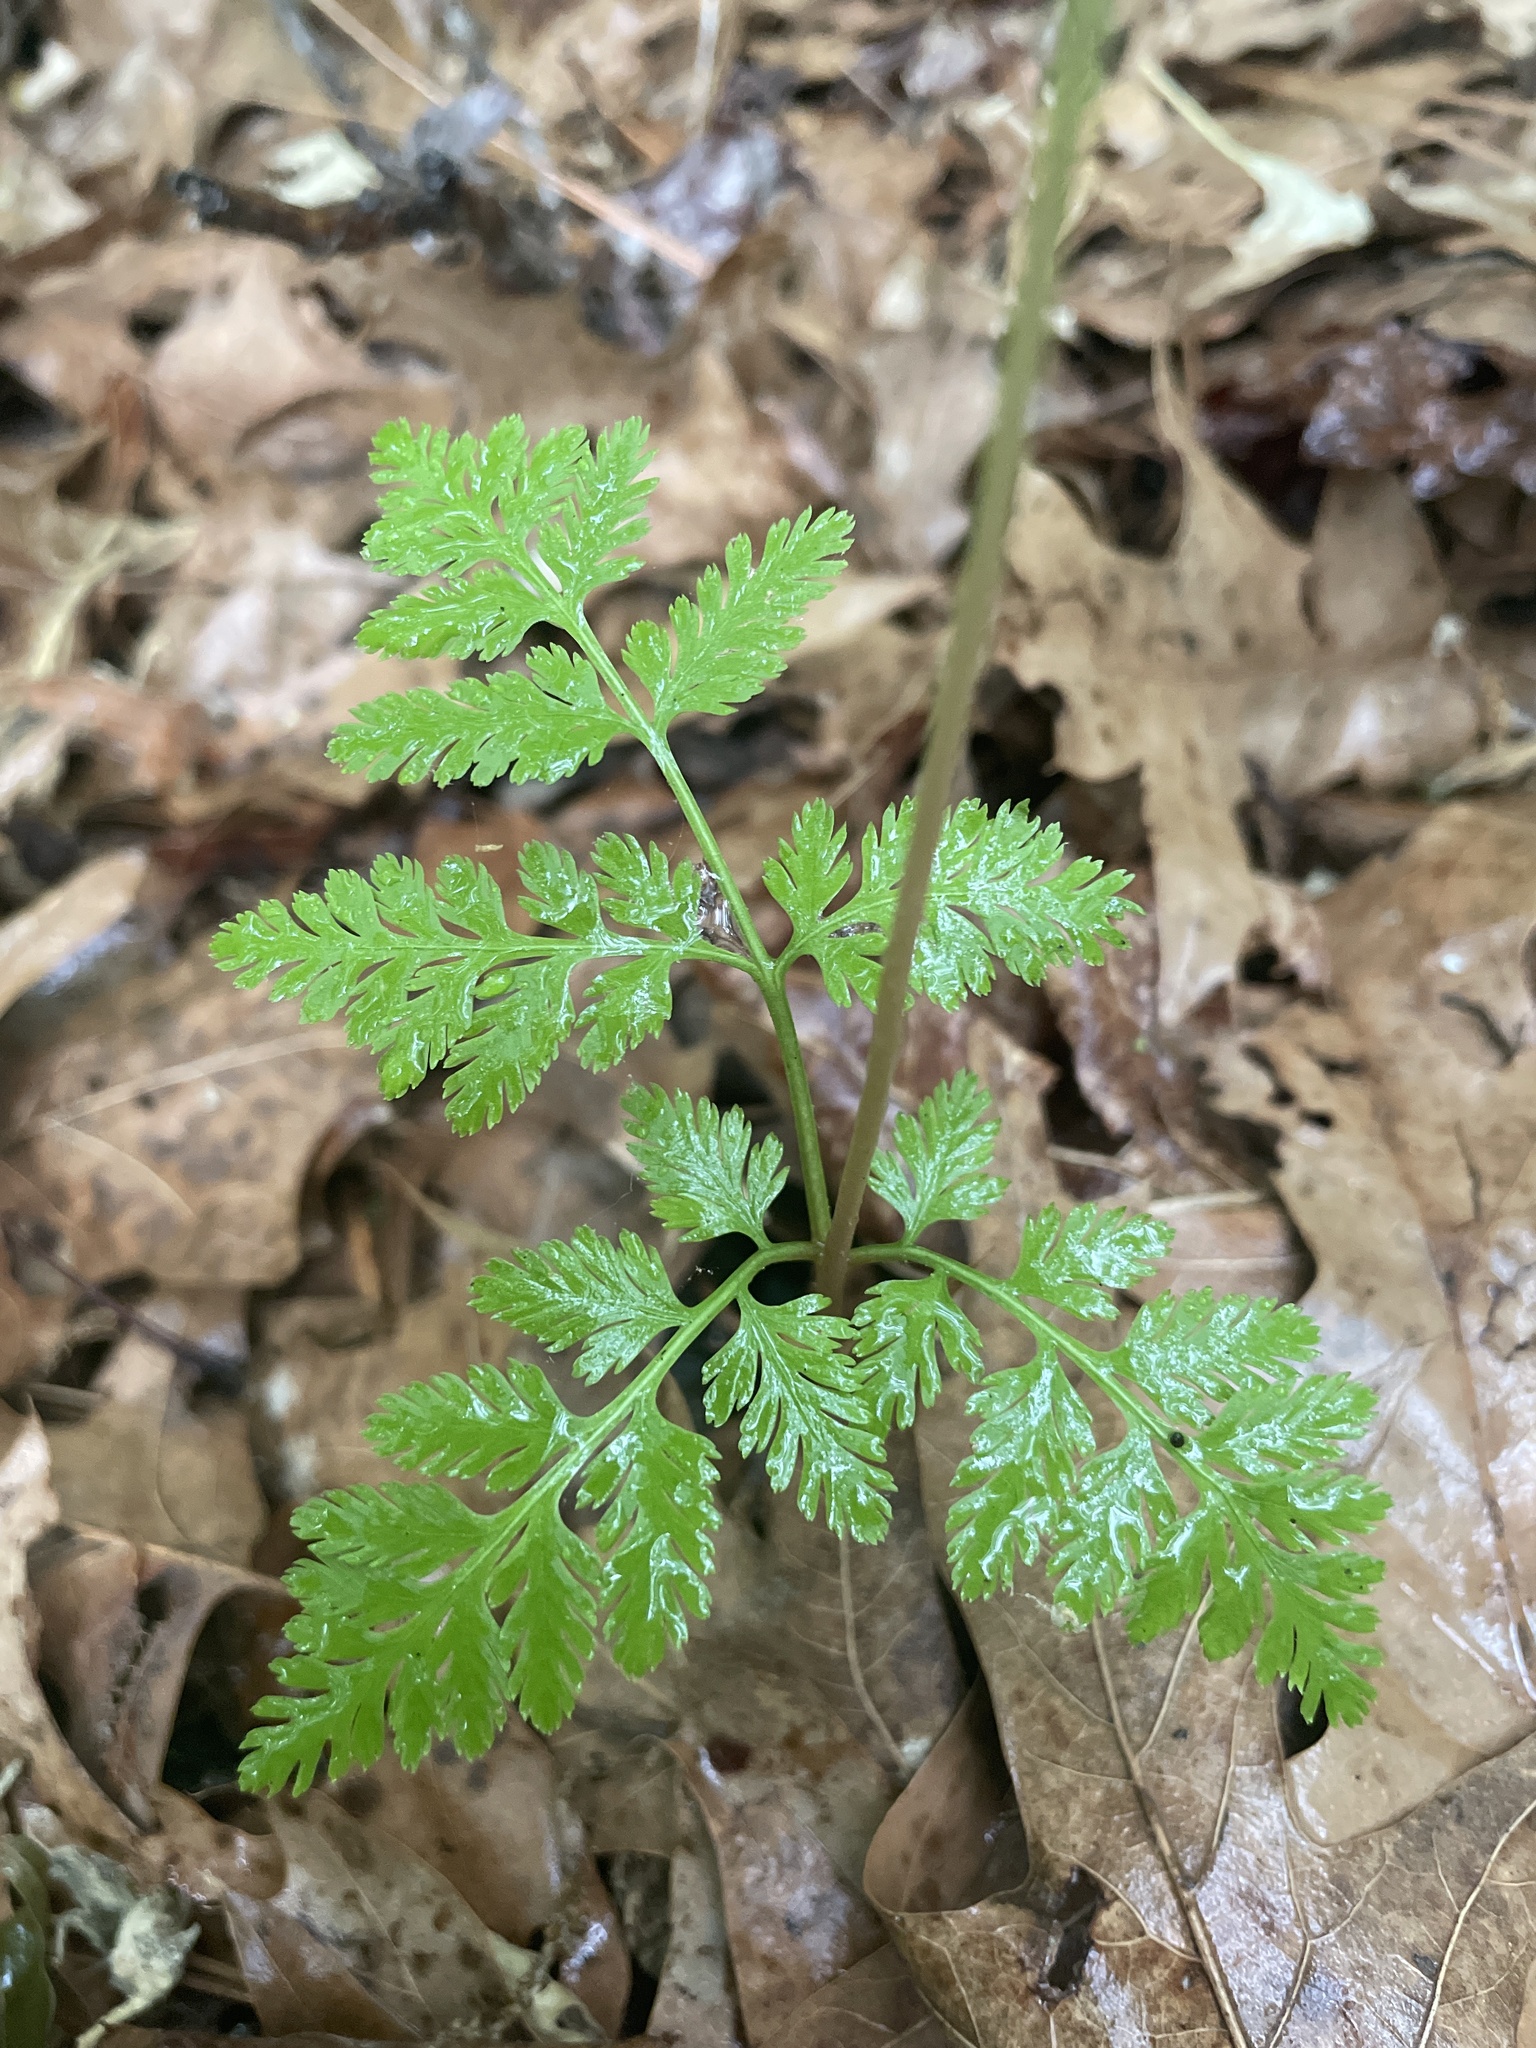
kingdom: Plantae
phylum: Tracheophyta
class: Polypodiopsida
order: Ophioglossales
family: Ophioglossaceae
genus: Botrypus
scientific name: Botrypus virginianus
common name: Common grapefern
